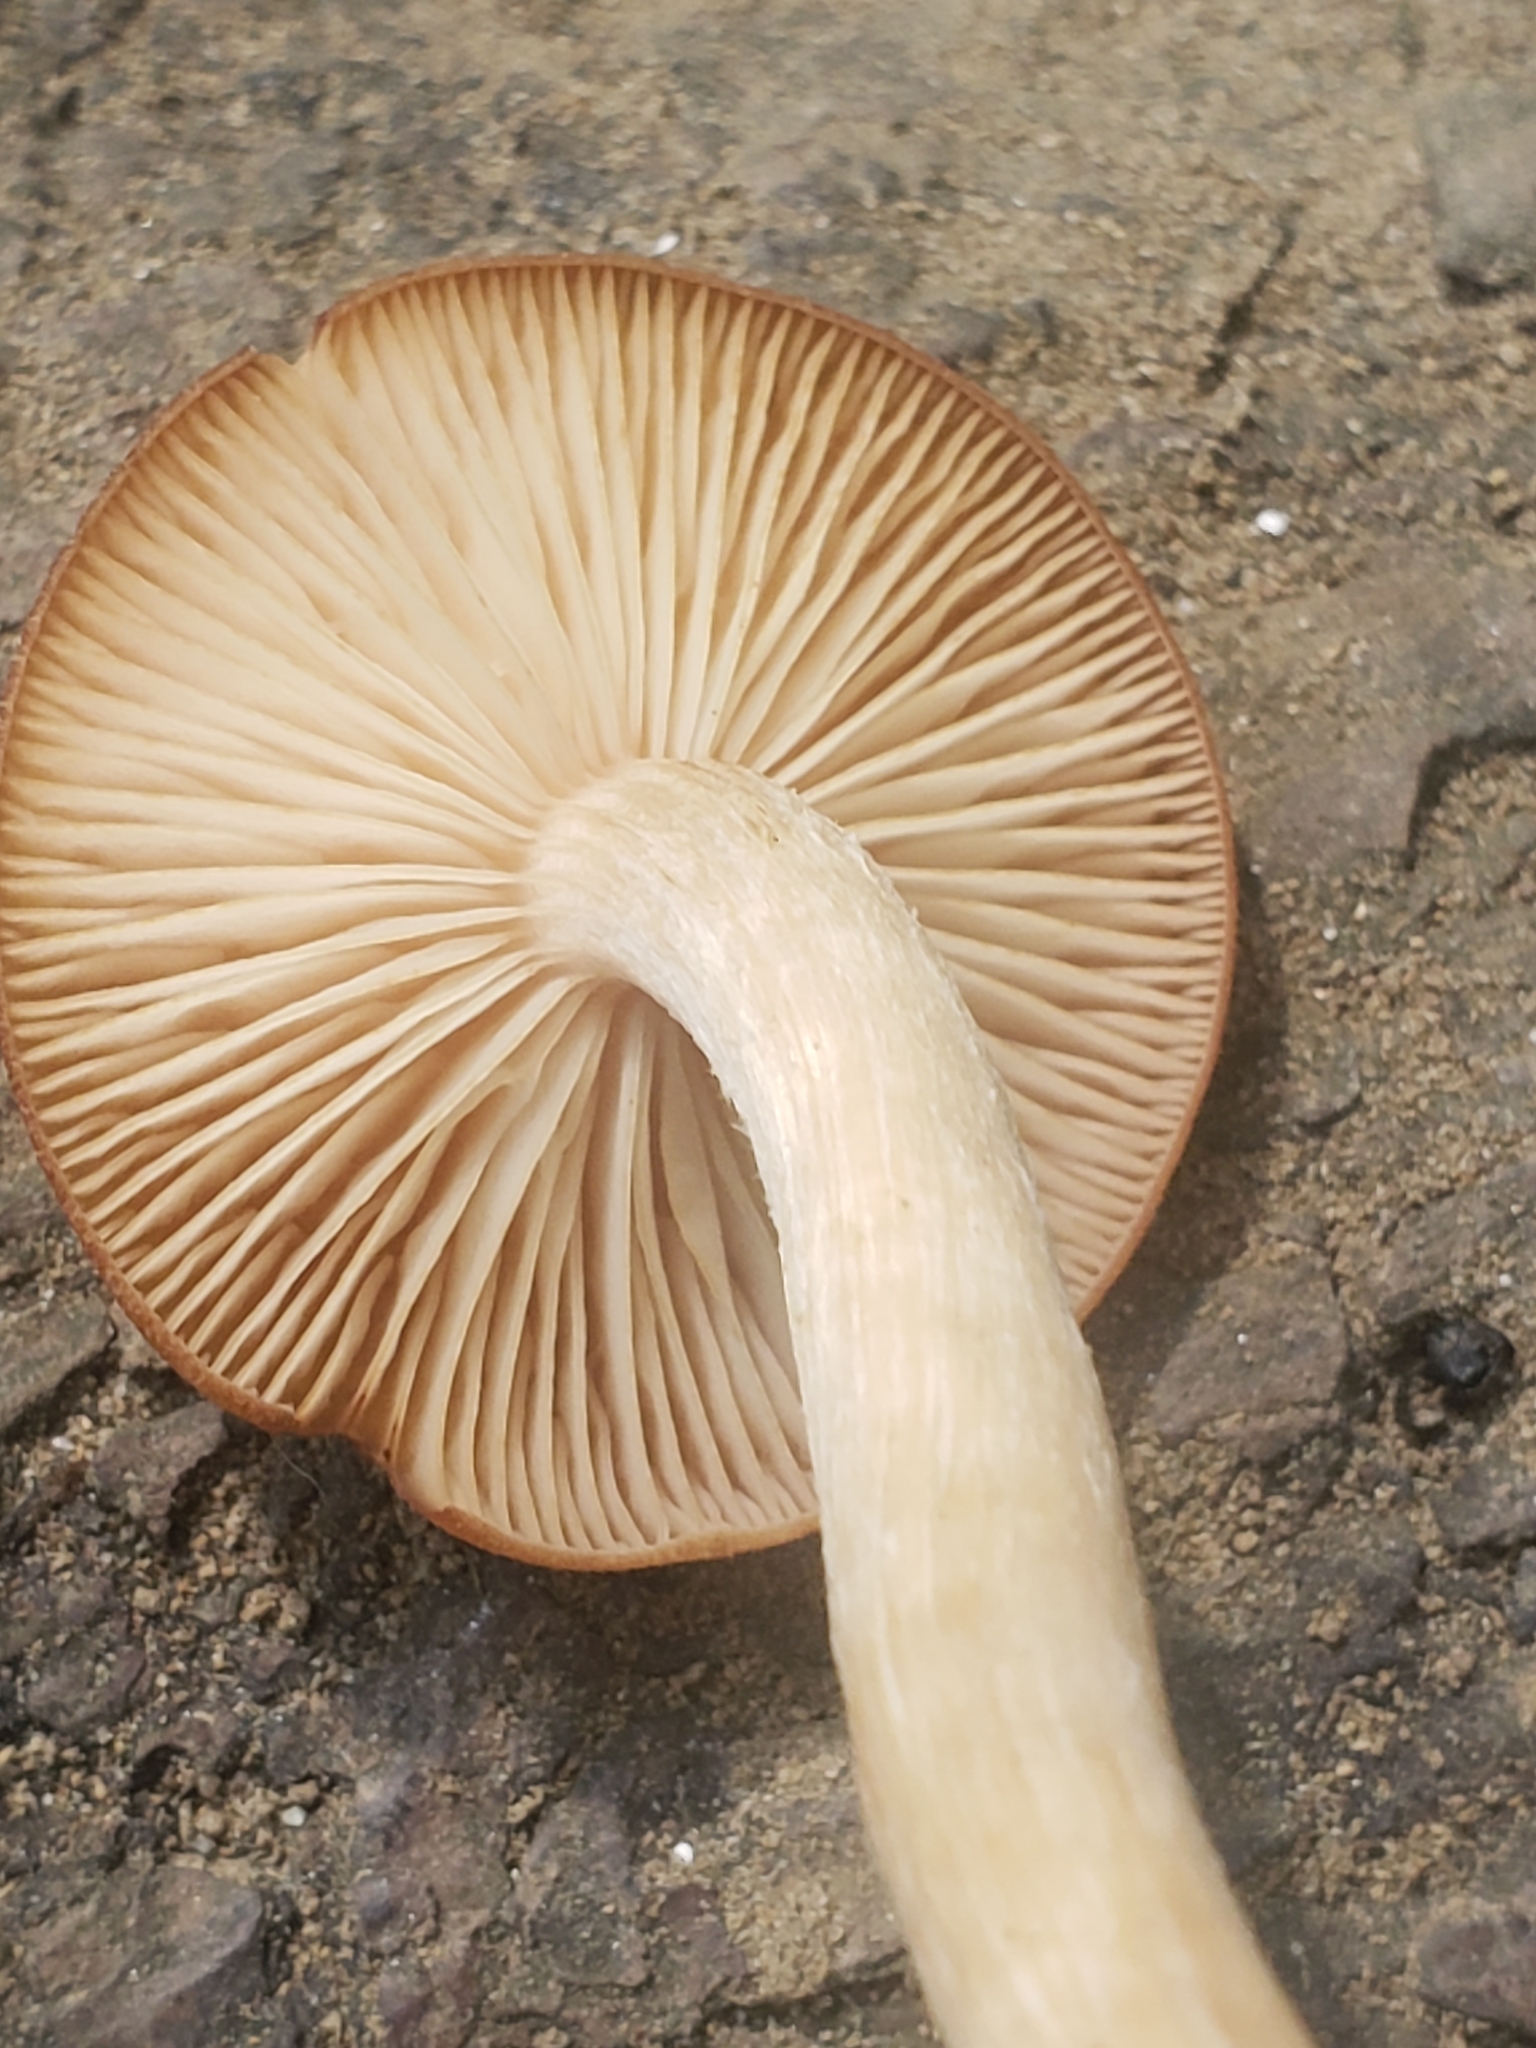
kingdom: Fungi
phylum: Basidiomycota
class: Agaricomycetes
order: Agaricales
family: Physalacriaceae
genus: Desarmillaria
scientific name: Desarmillaria caespitosa
